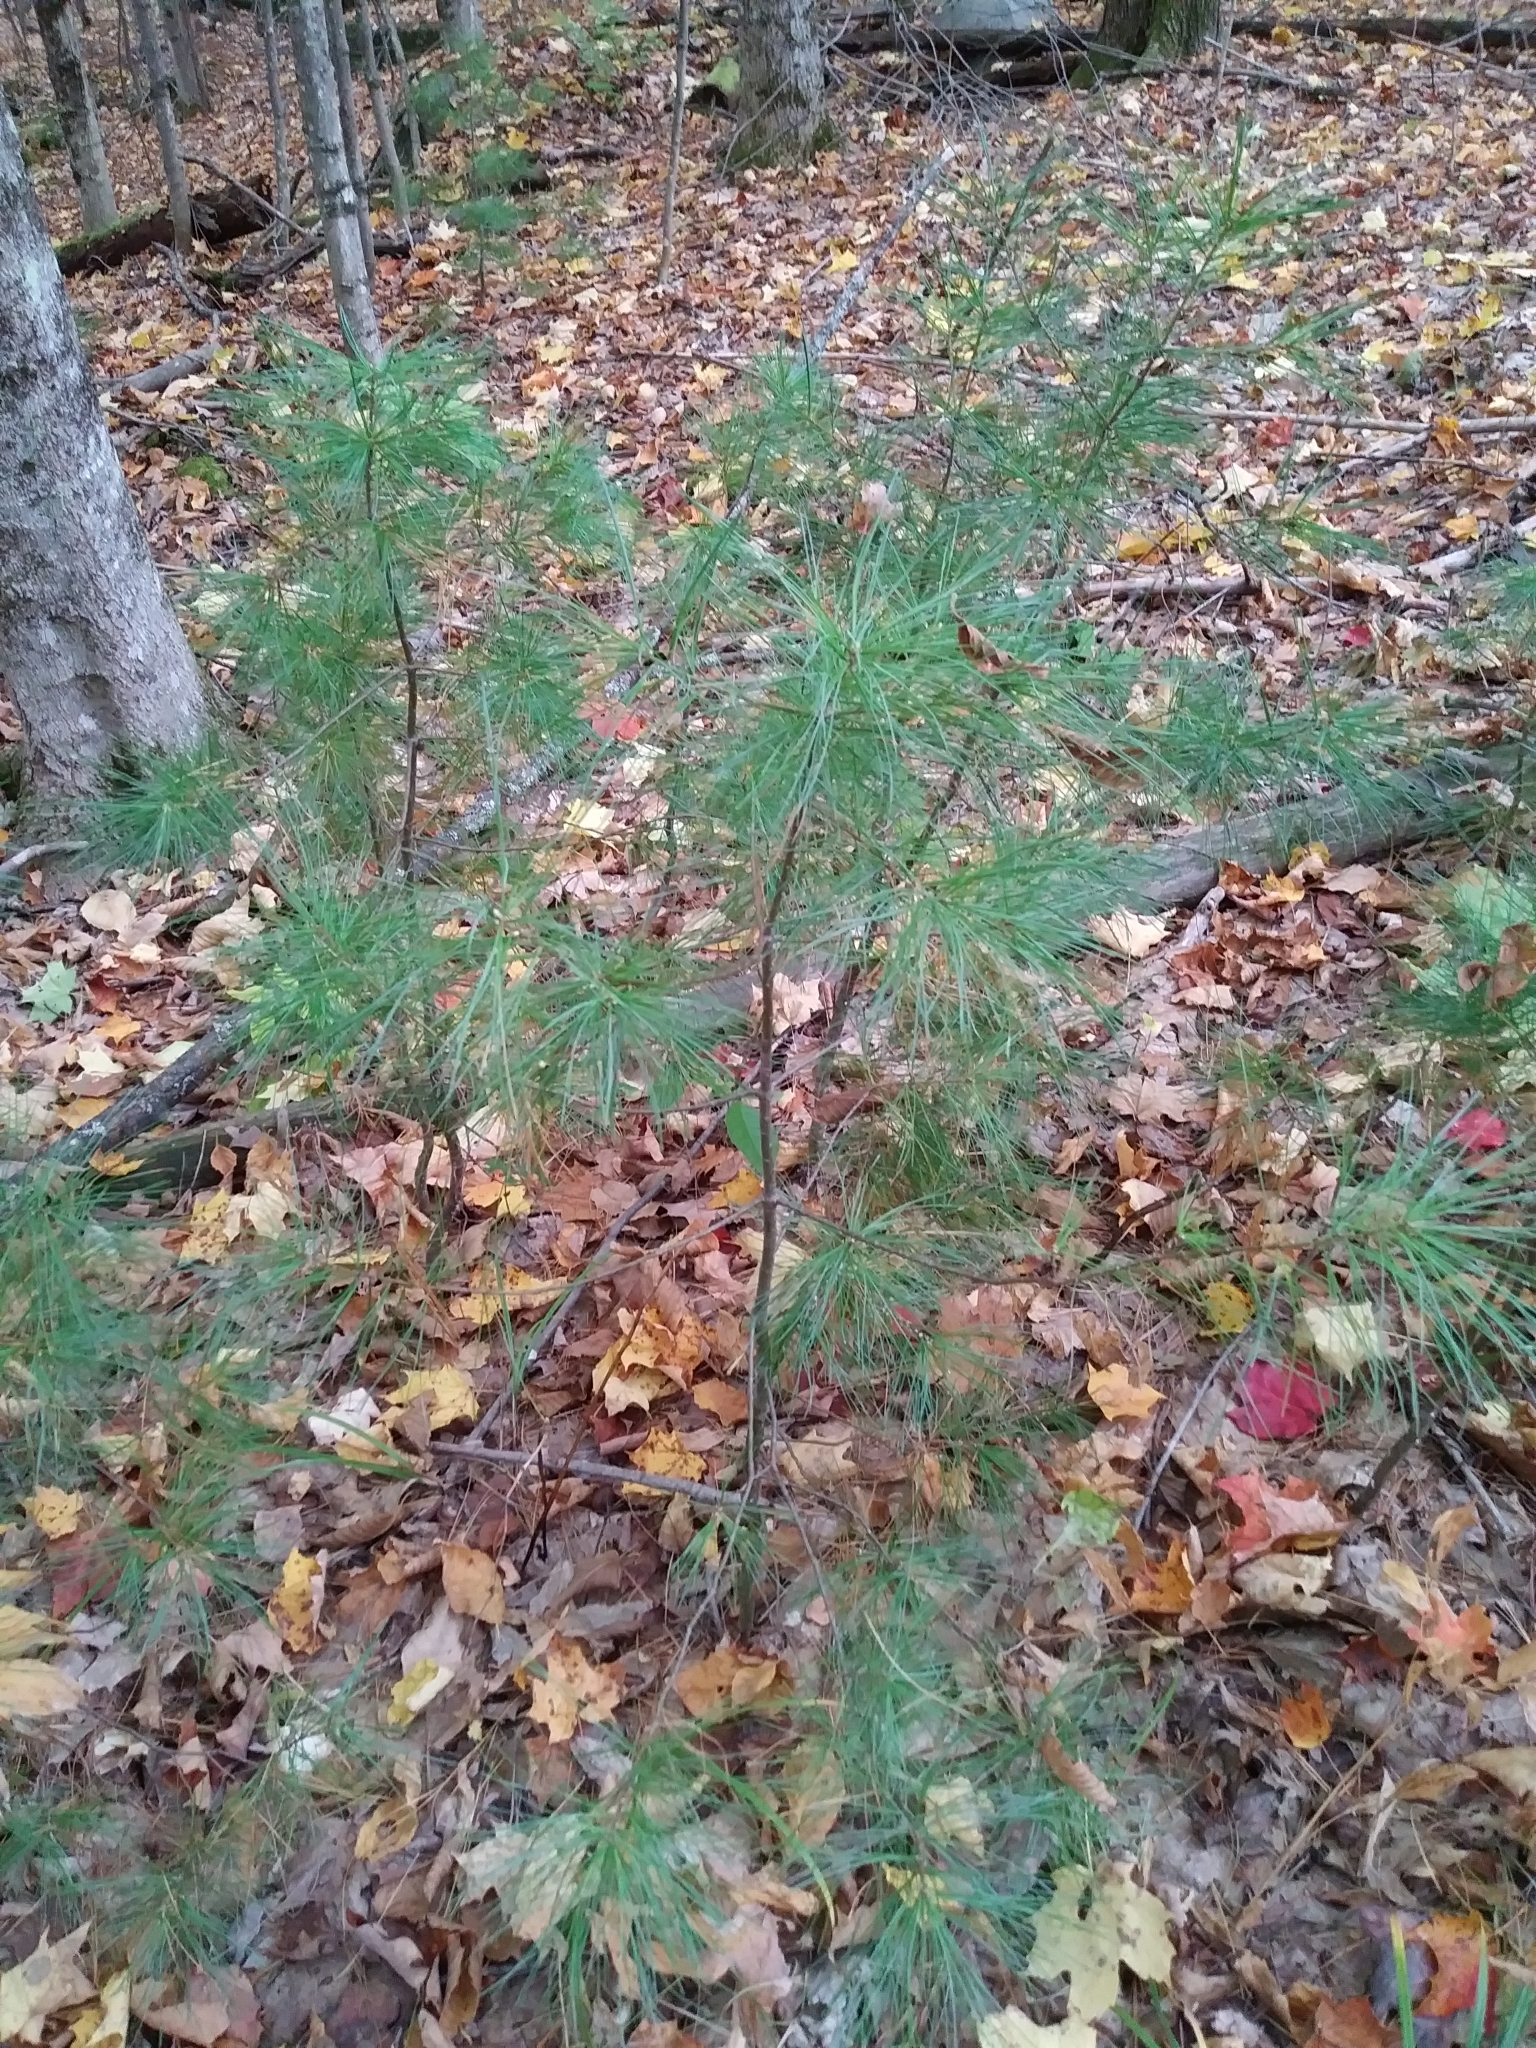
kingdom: Plantae
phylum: Tracheophyta
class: Pinopsida
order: Pinales
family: Pinaceae
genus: Pinus
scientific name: Pinus strobus
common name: Weymouth pine
